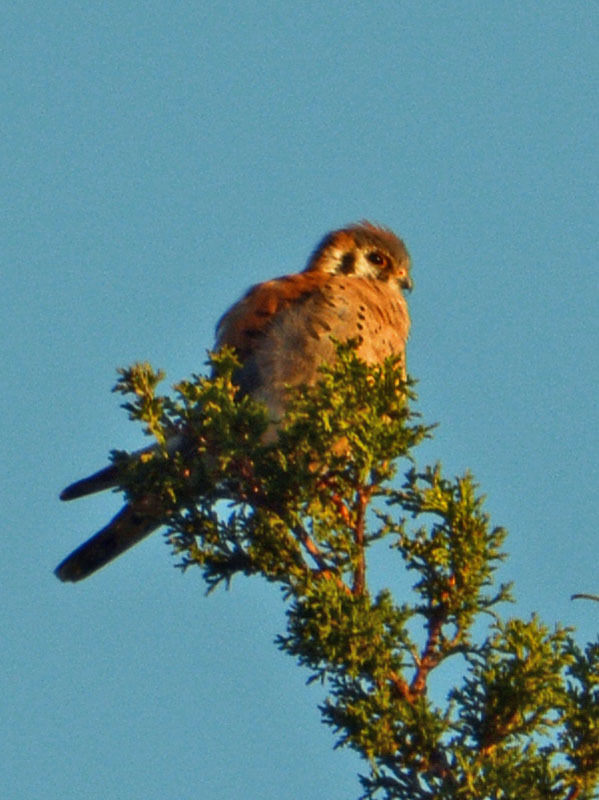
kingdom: Animalia
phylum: Chordata
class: Aves
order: Falconiformes
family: Falconidae
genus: Falco
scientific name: Falco sparverius
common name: American kestrel
